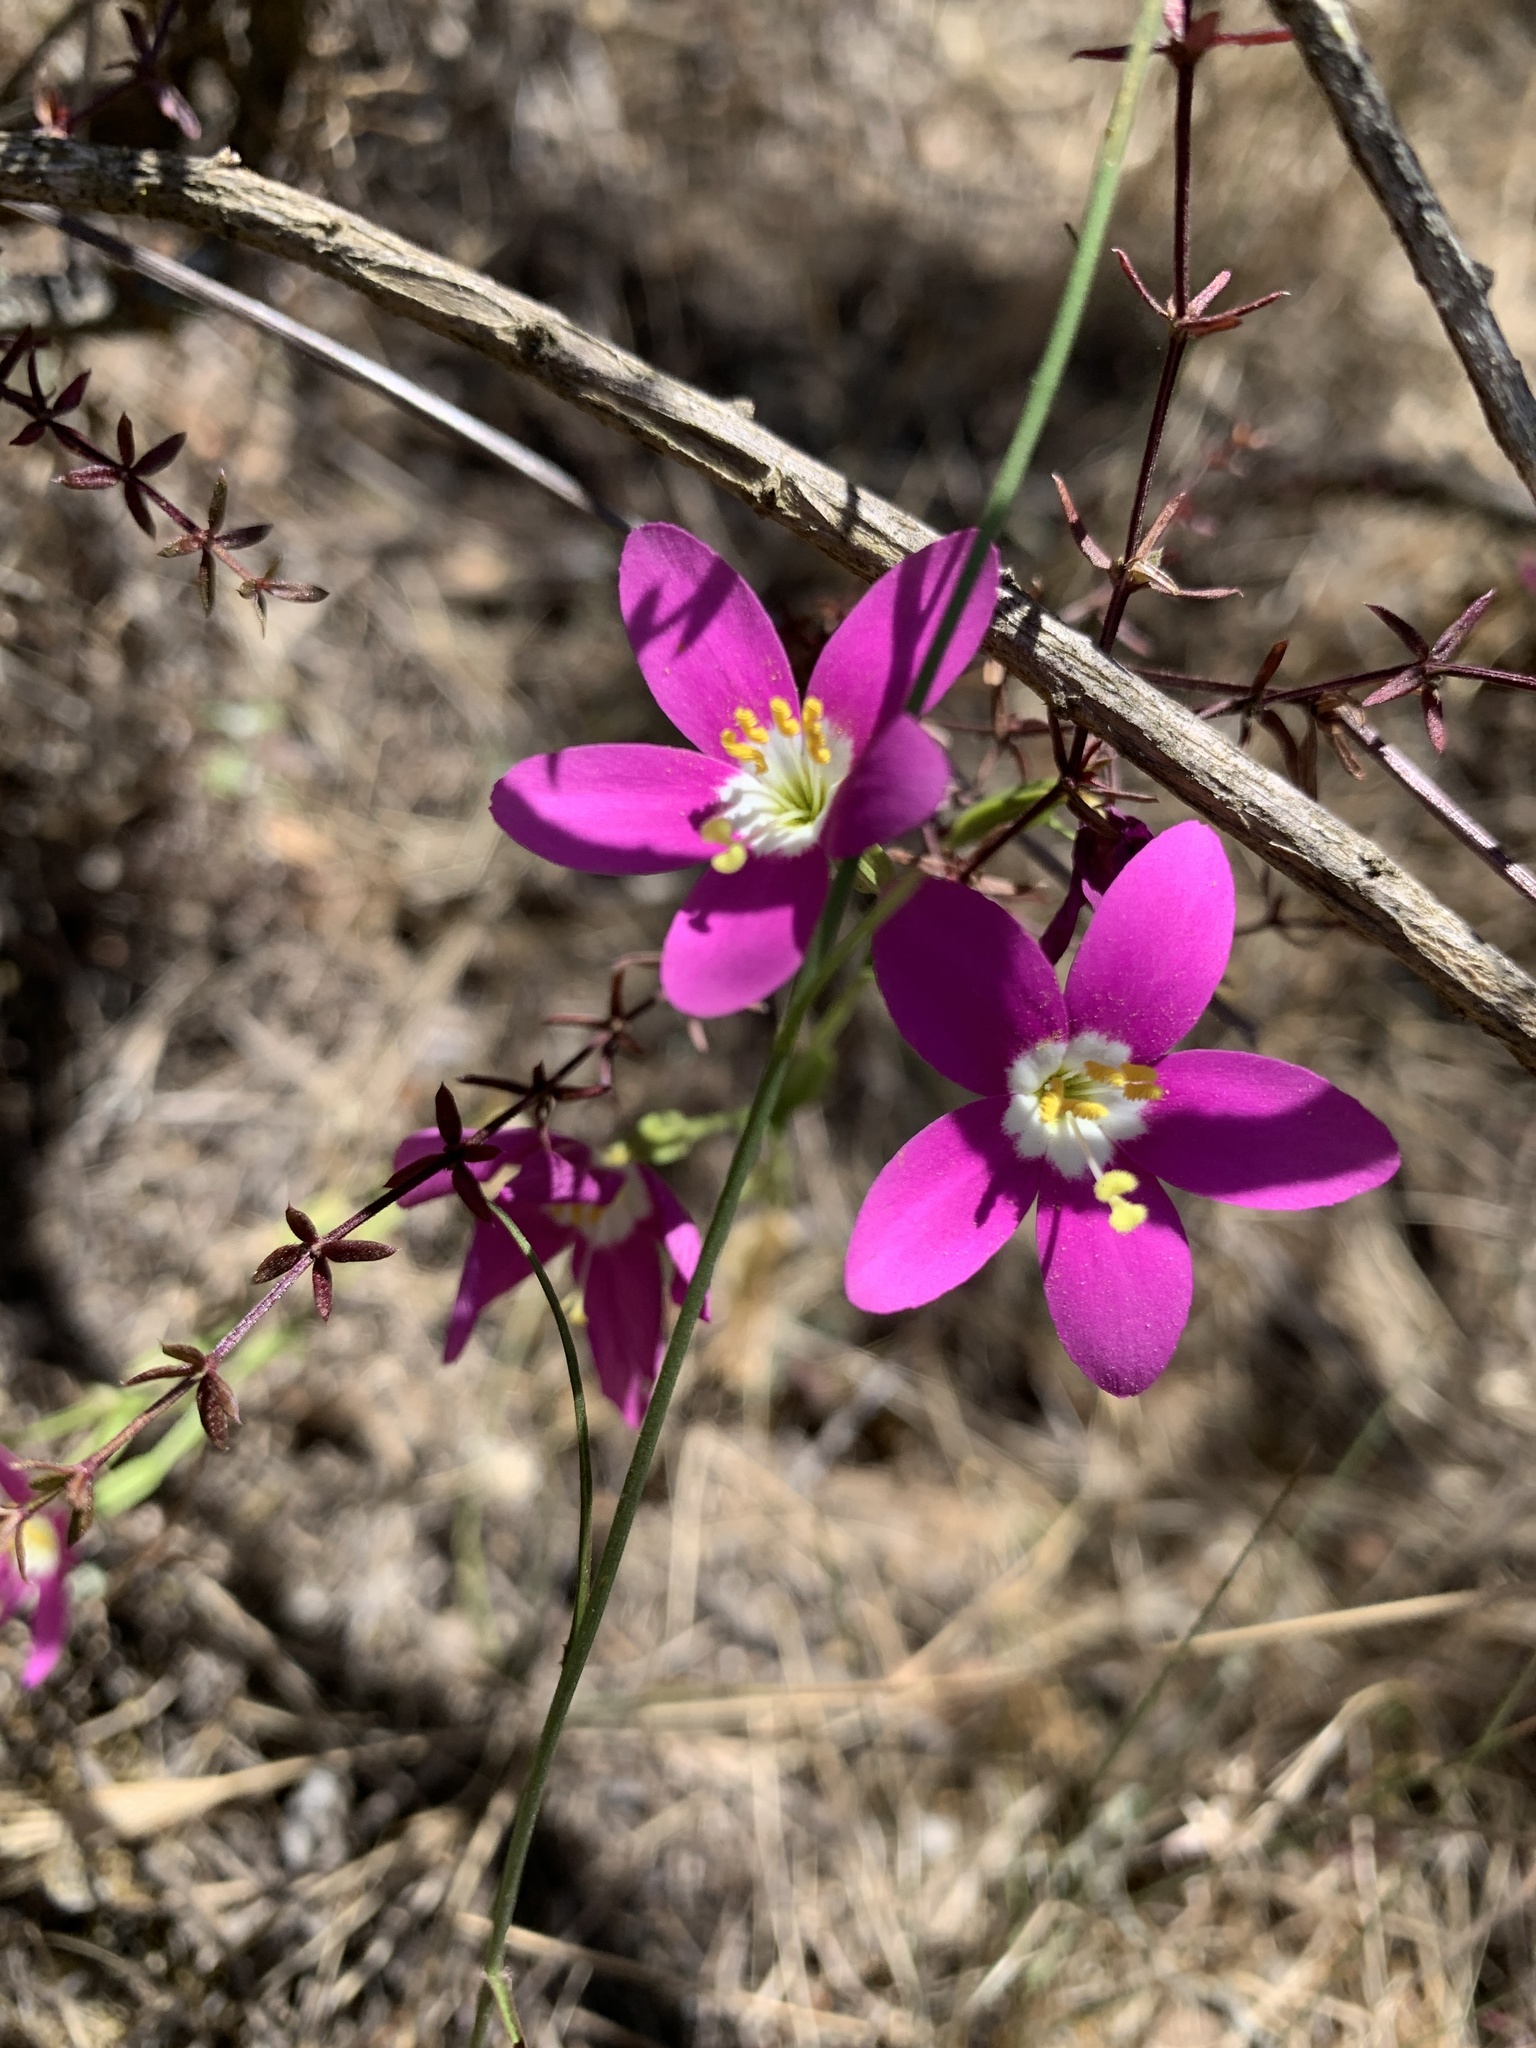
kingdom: Plantae
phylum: Tracheophyta
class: Magnoliopsida
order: Gentianales
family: Gentianaceae
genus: Zeltnera
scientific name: Zeltnera venusta
